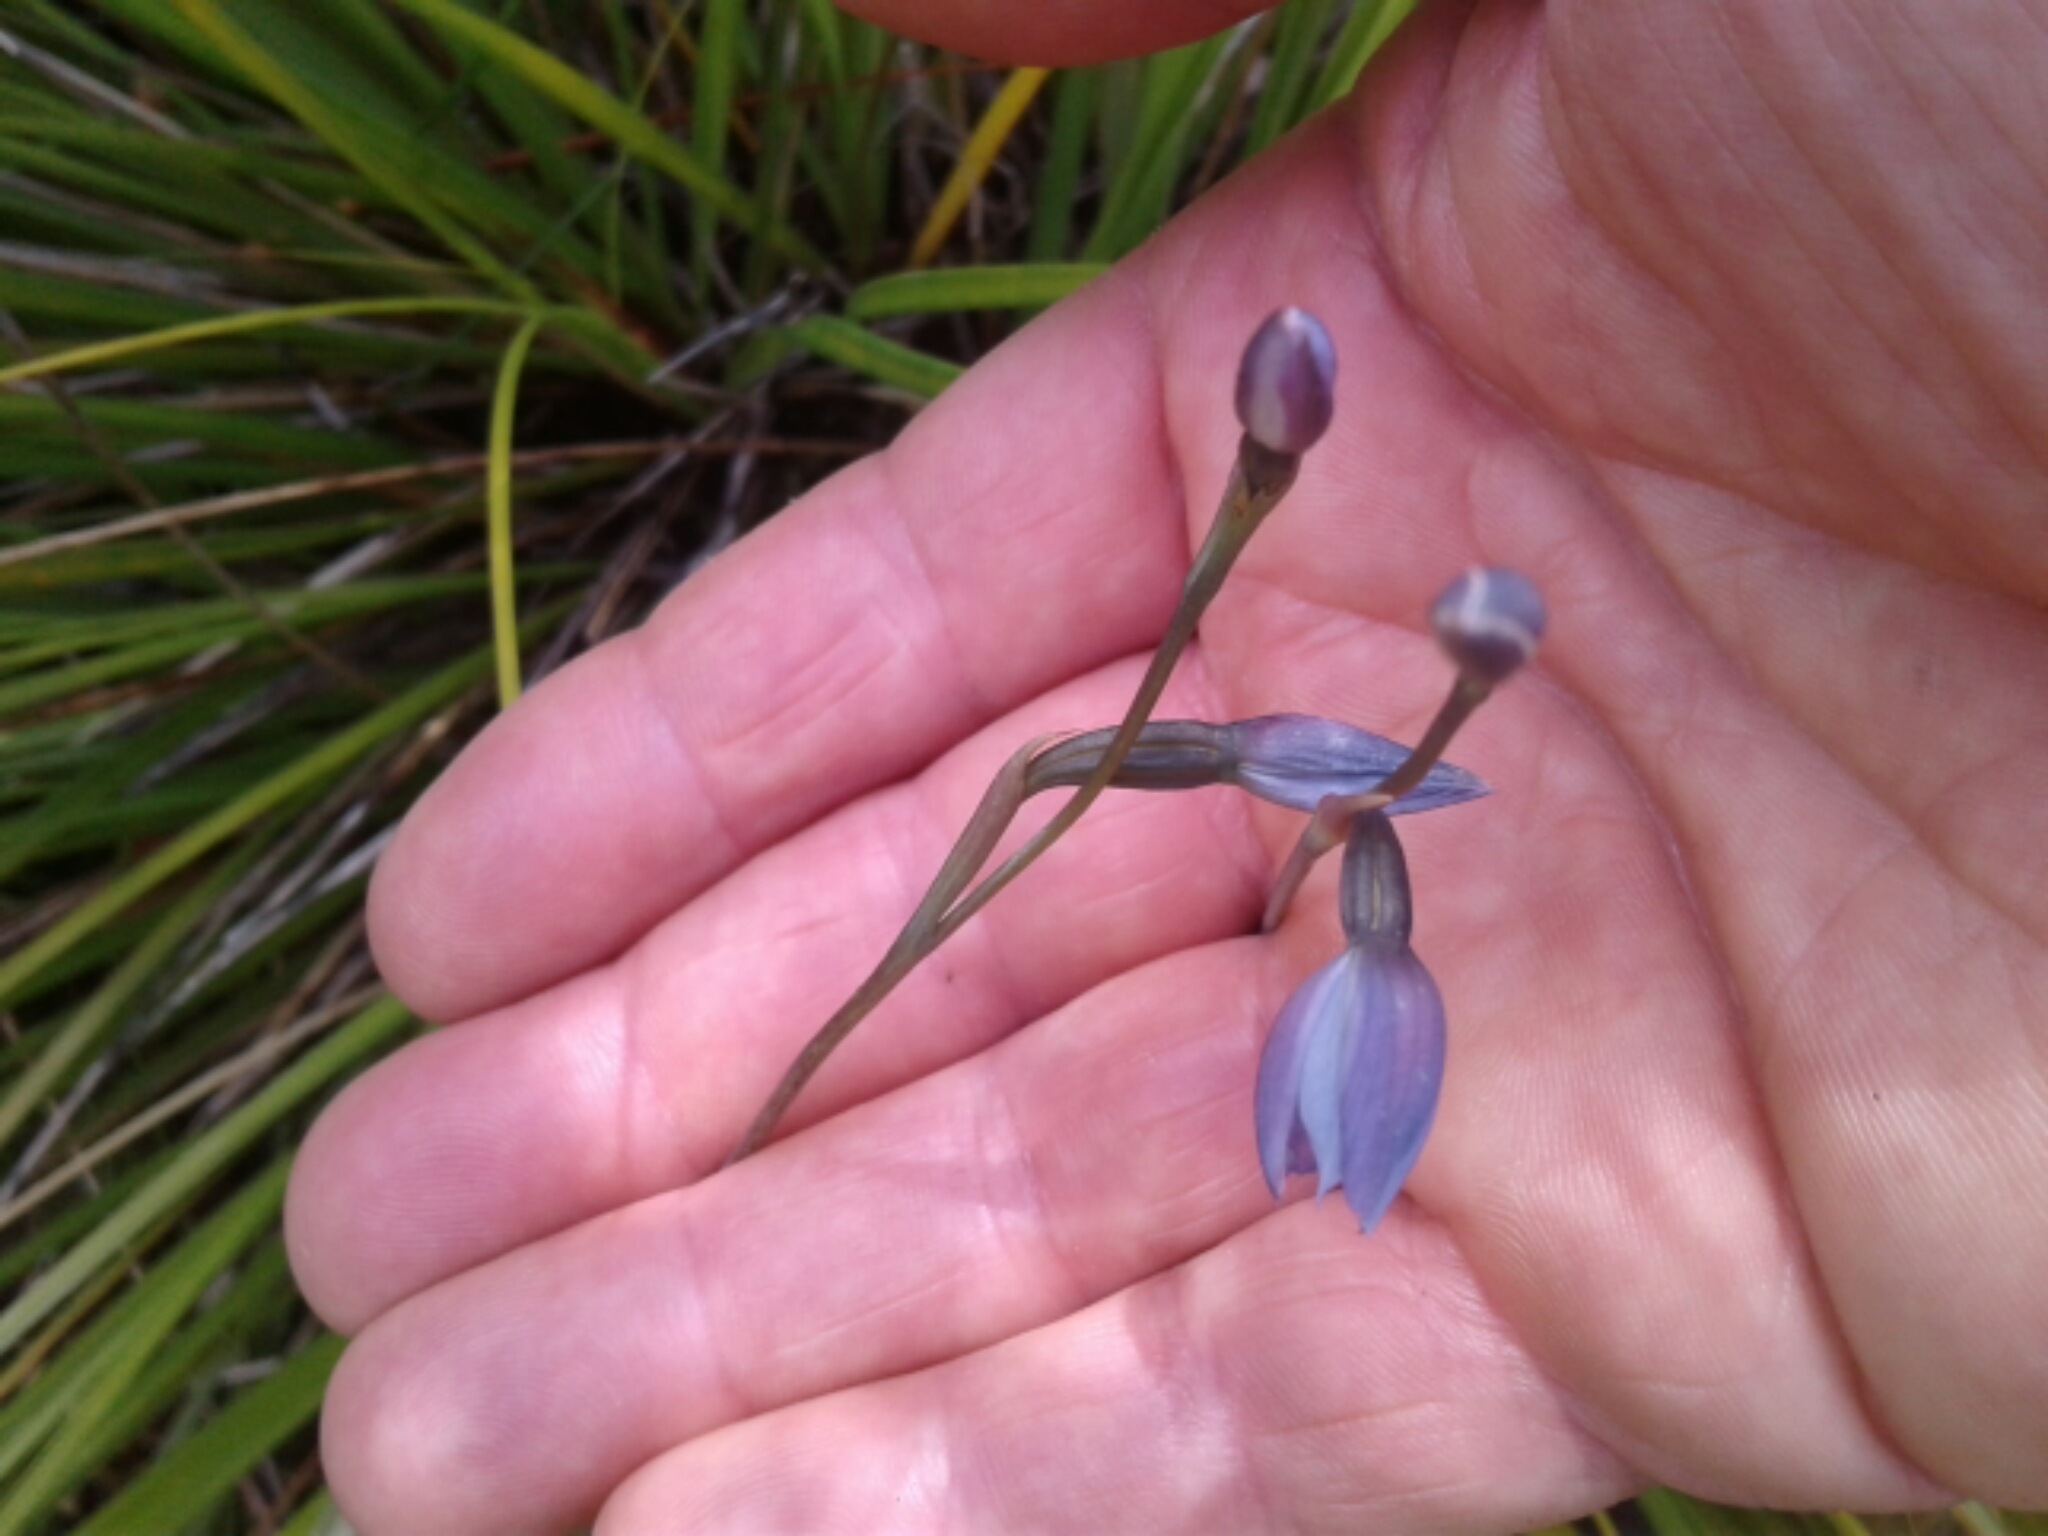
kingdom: Plantae
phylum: Tracheophyta
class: Liliopsida
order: Asparagales
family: Orchidaceae
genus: Thelymitra
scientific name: Thelymitra
